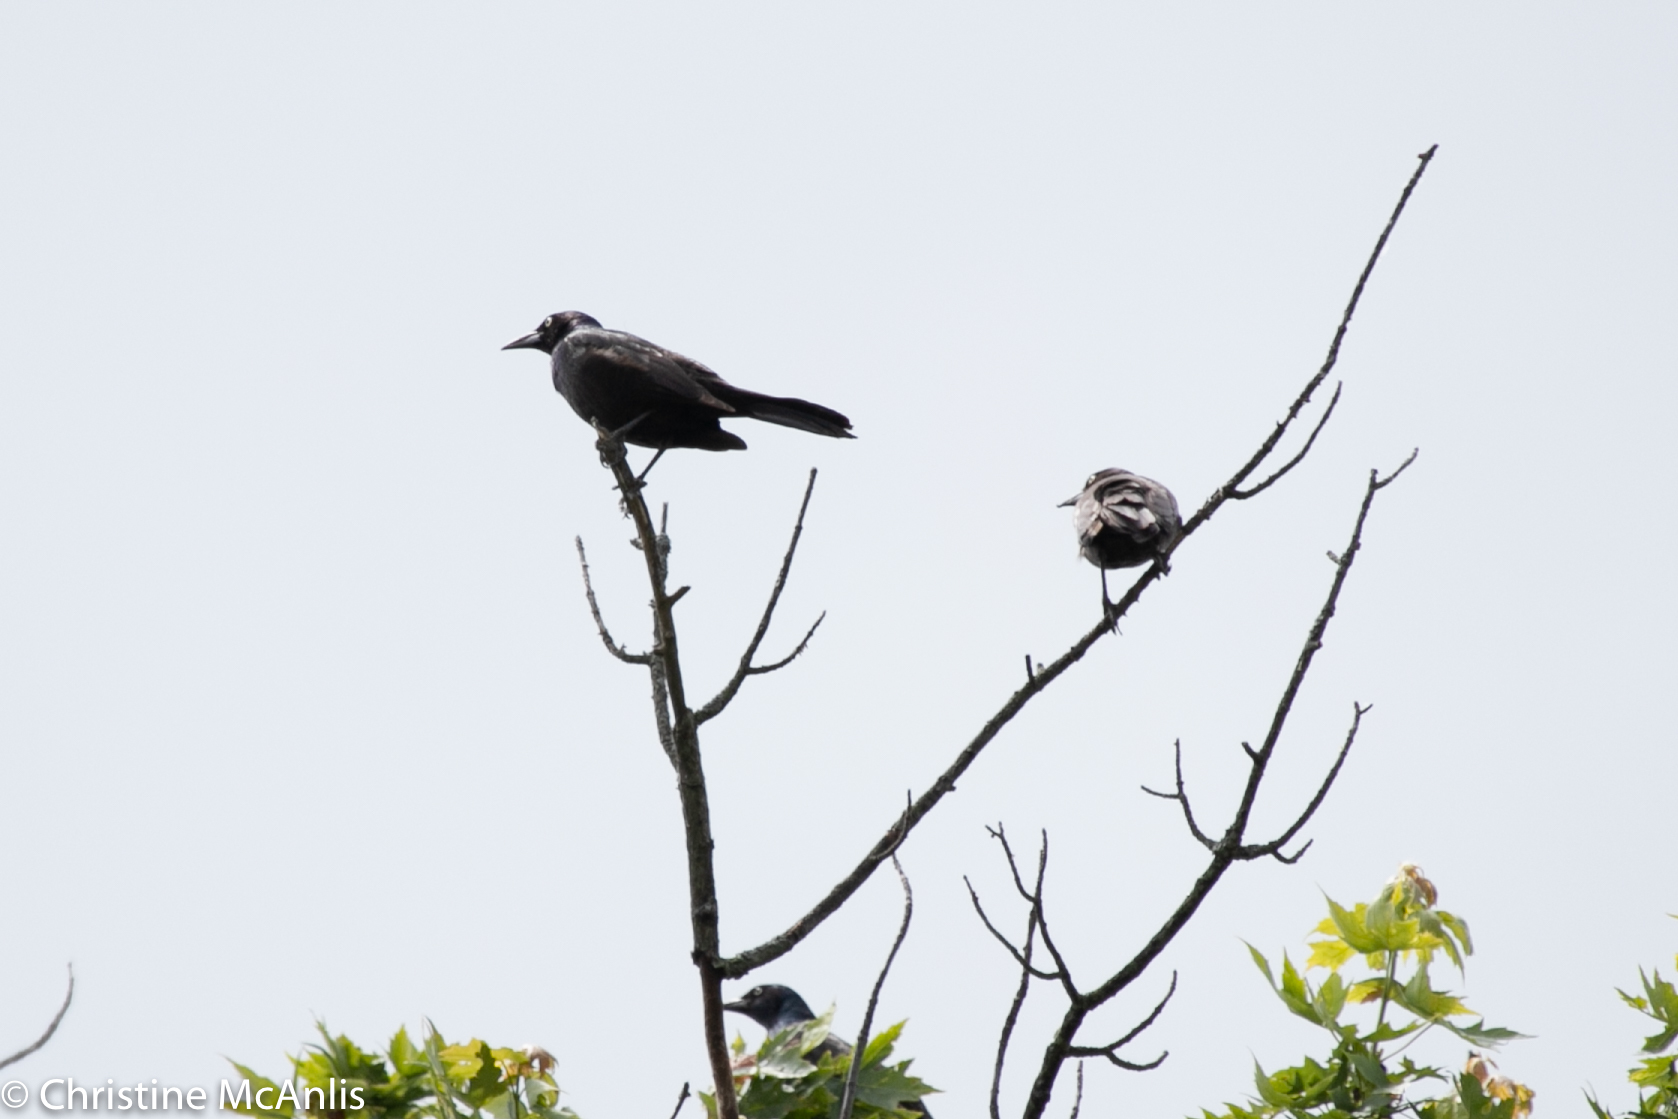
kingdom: Animalia
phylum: Chordata
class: Aves
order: Passeriformes
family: Icteridae
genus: Quiscalus
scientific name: Quiscalus quiscula
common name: Common grackle
